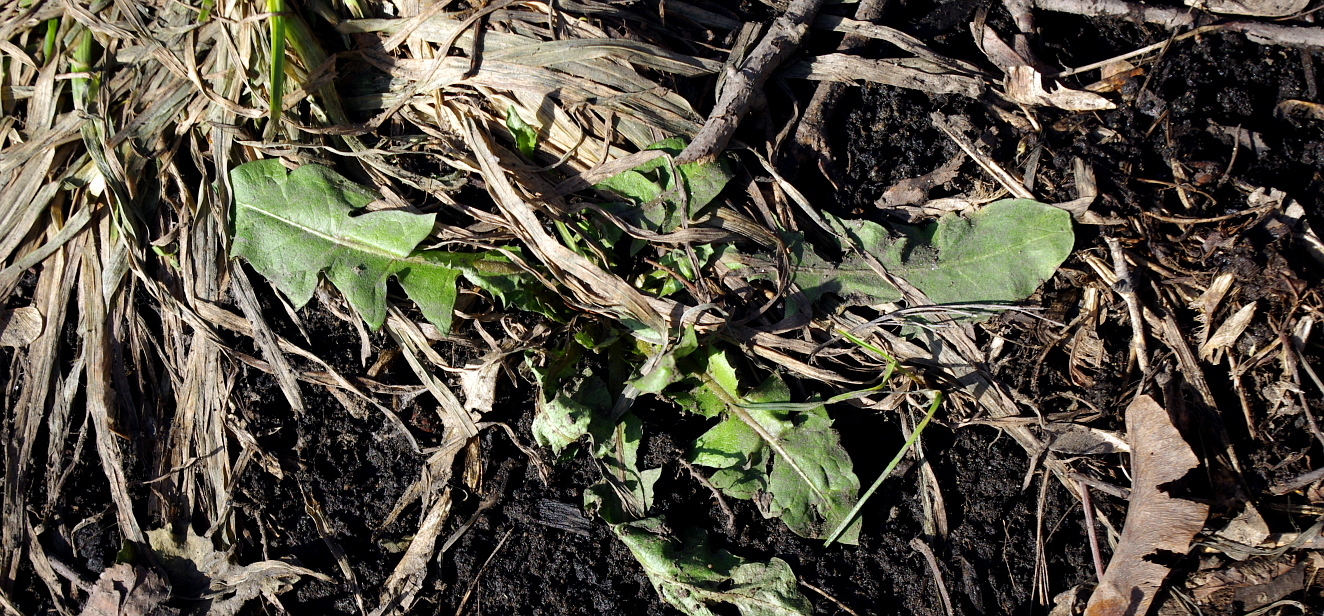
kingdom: Plantae
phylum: Tracheophyta
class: Magnoliopsida
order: Asterales
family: Asteraceae
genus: Taraxacum
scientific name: Taraxacum officinale
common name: Common dandelion
